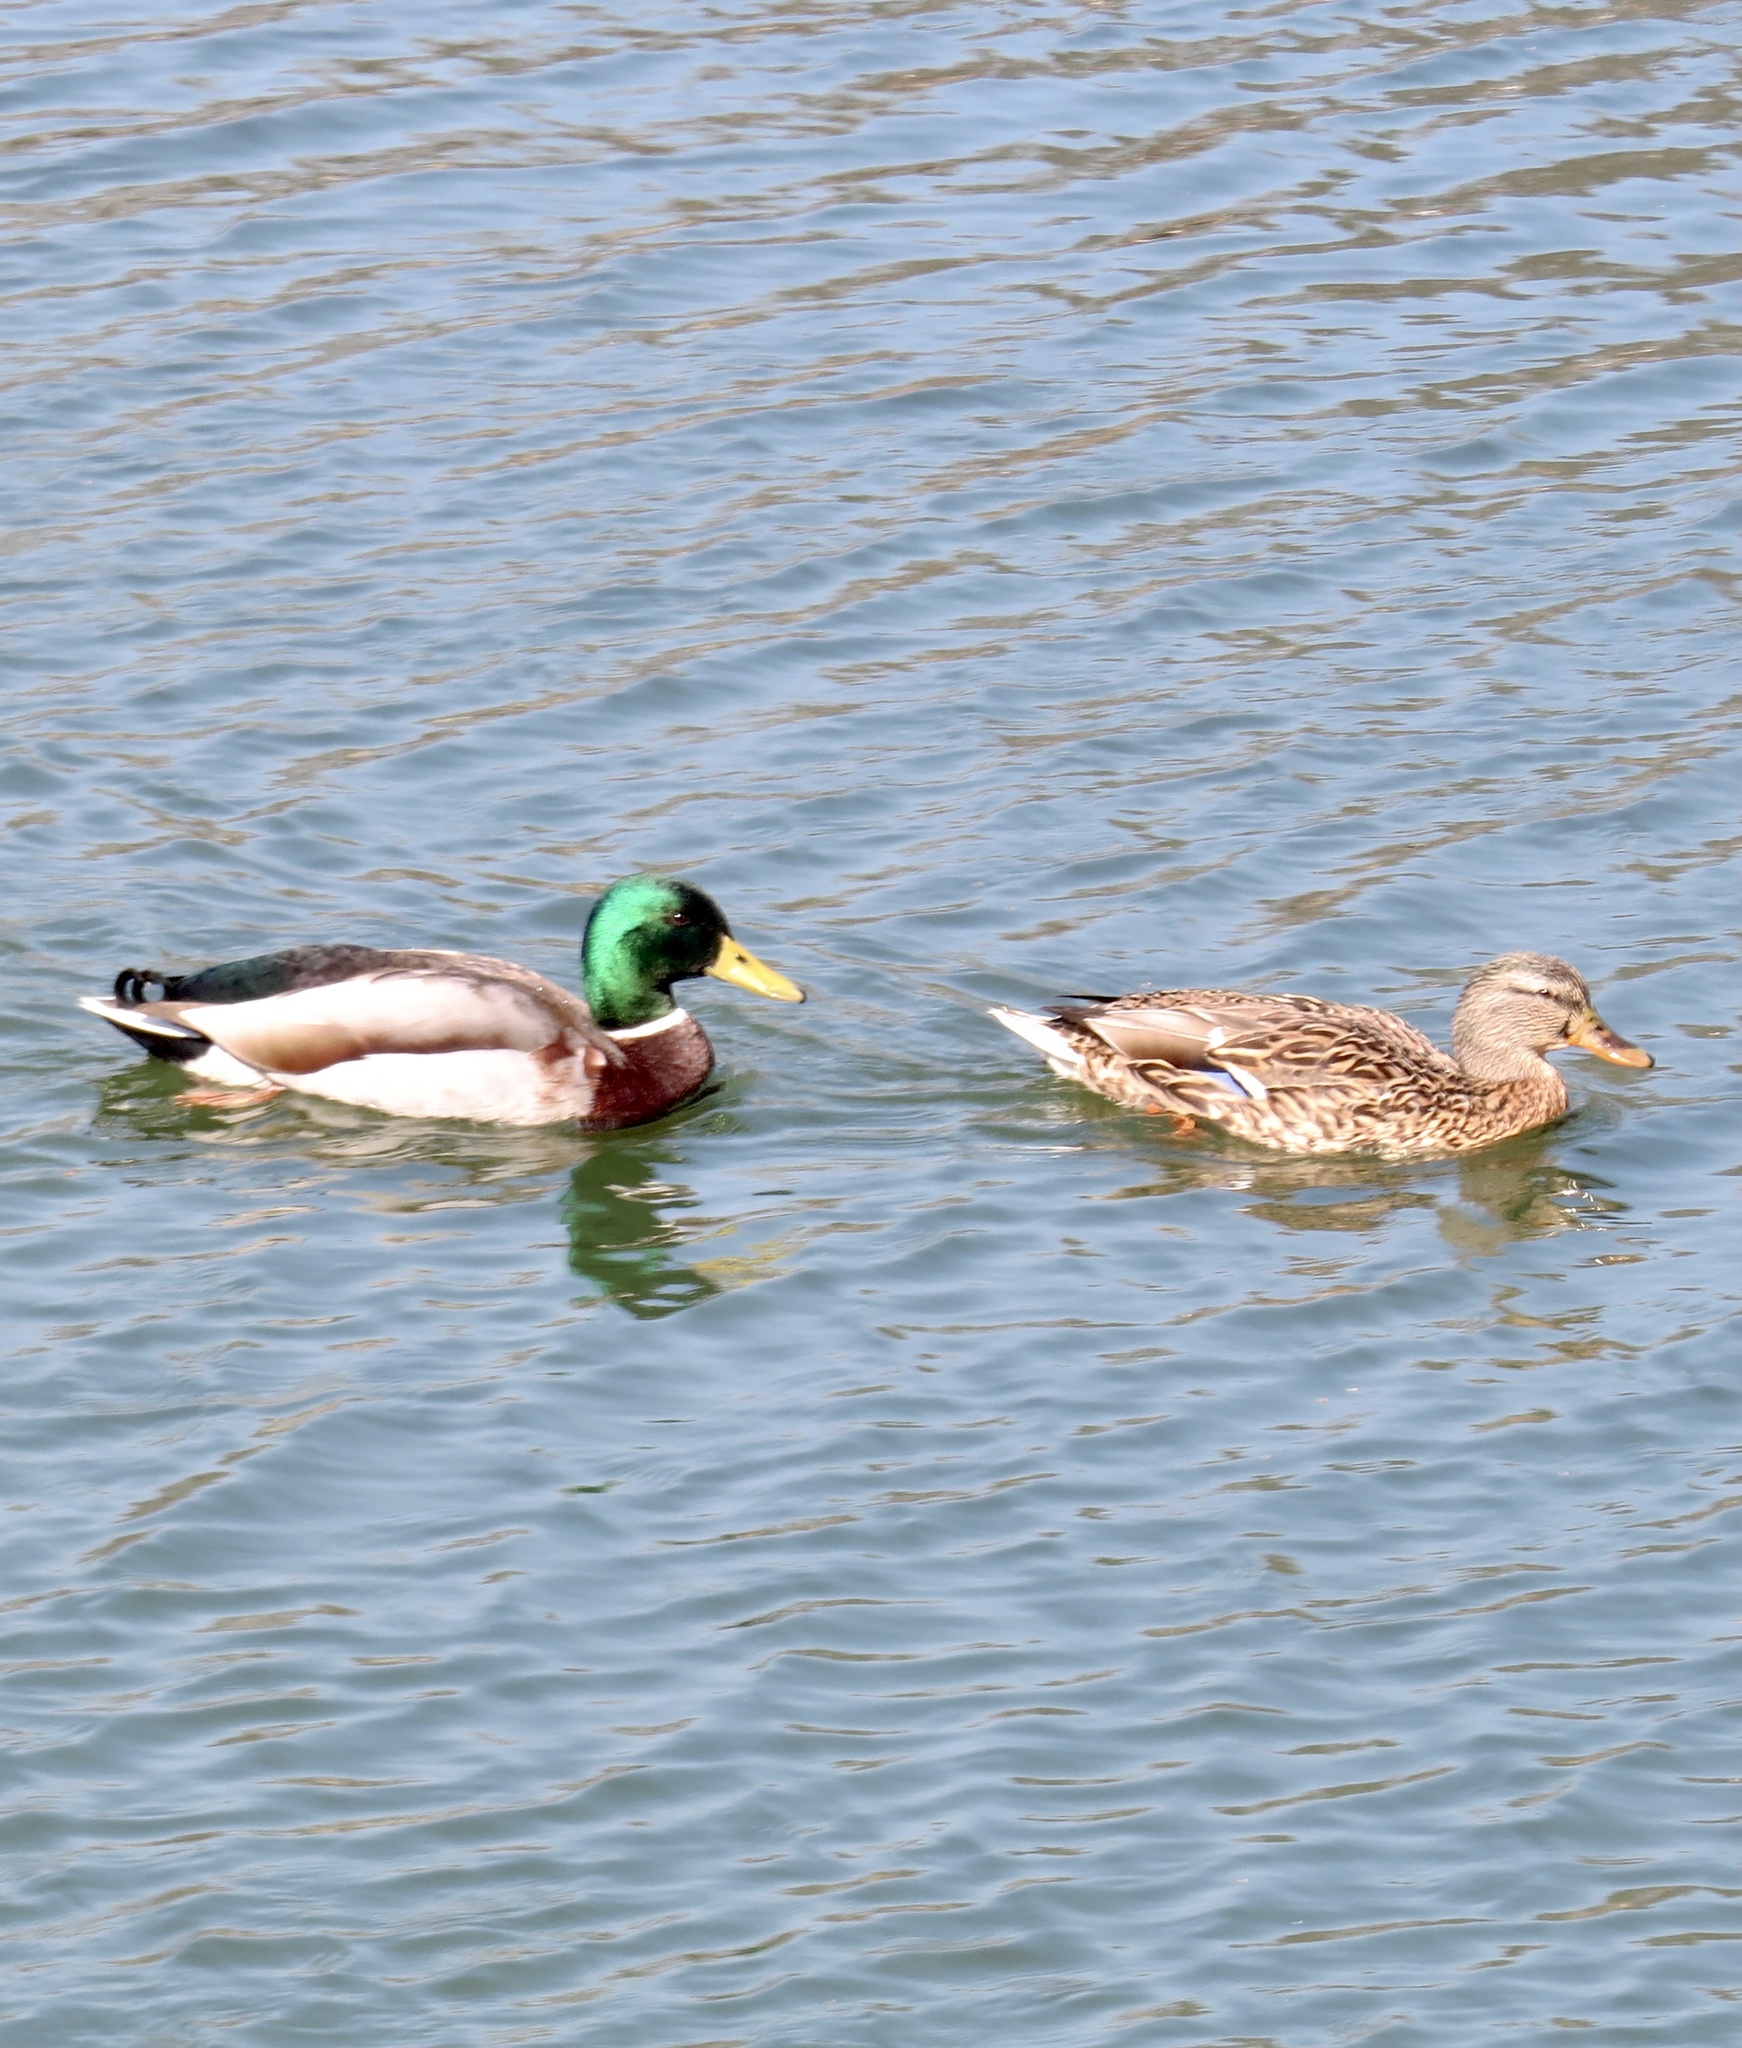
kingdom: Animalia
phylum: Chordata
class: Aves
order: Anseriformes
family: Anatidae
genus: Anas
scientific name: Anas platyrhynchos
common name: Mallard
